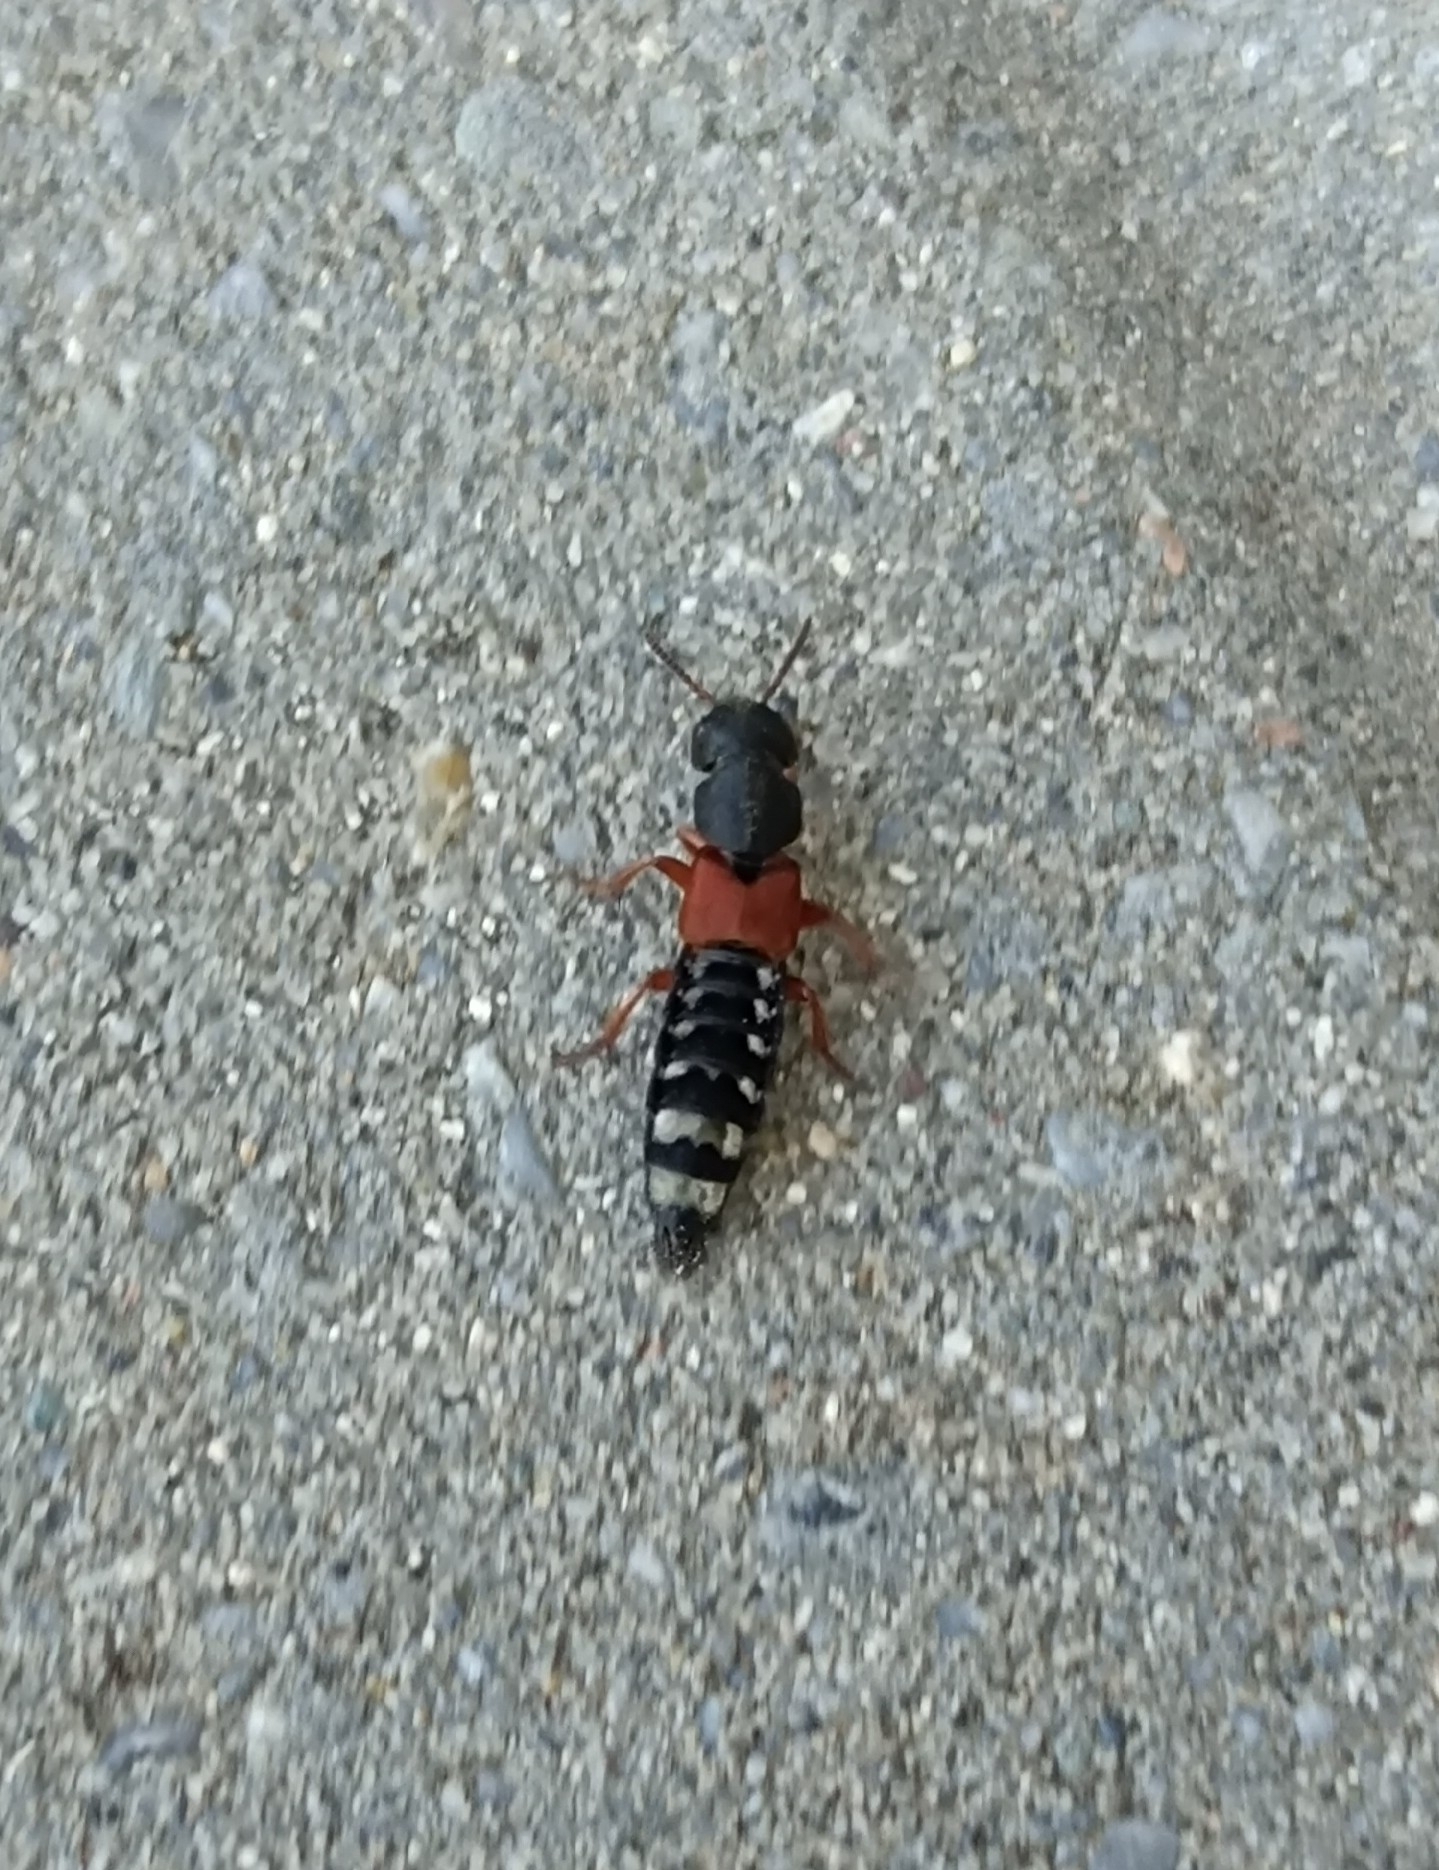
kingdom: Animalia
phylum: Arthropoda
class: Insecta
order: Coleoptera
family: Staphylinidae
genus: Platydracus
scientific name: Platydracus stercorarius
